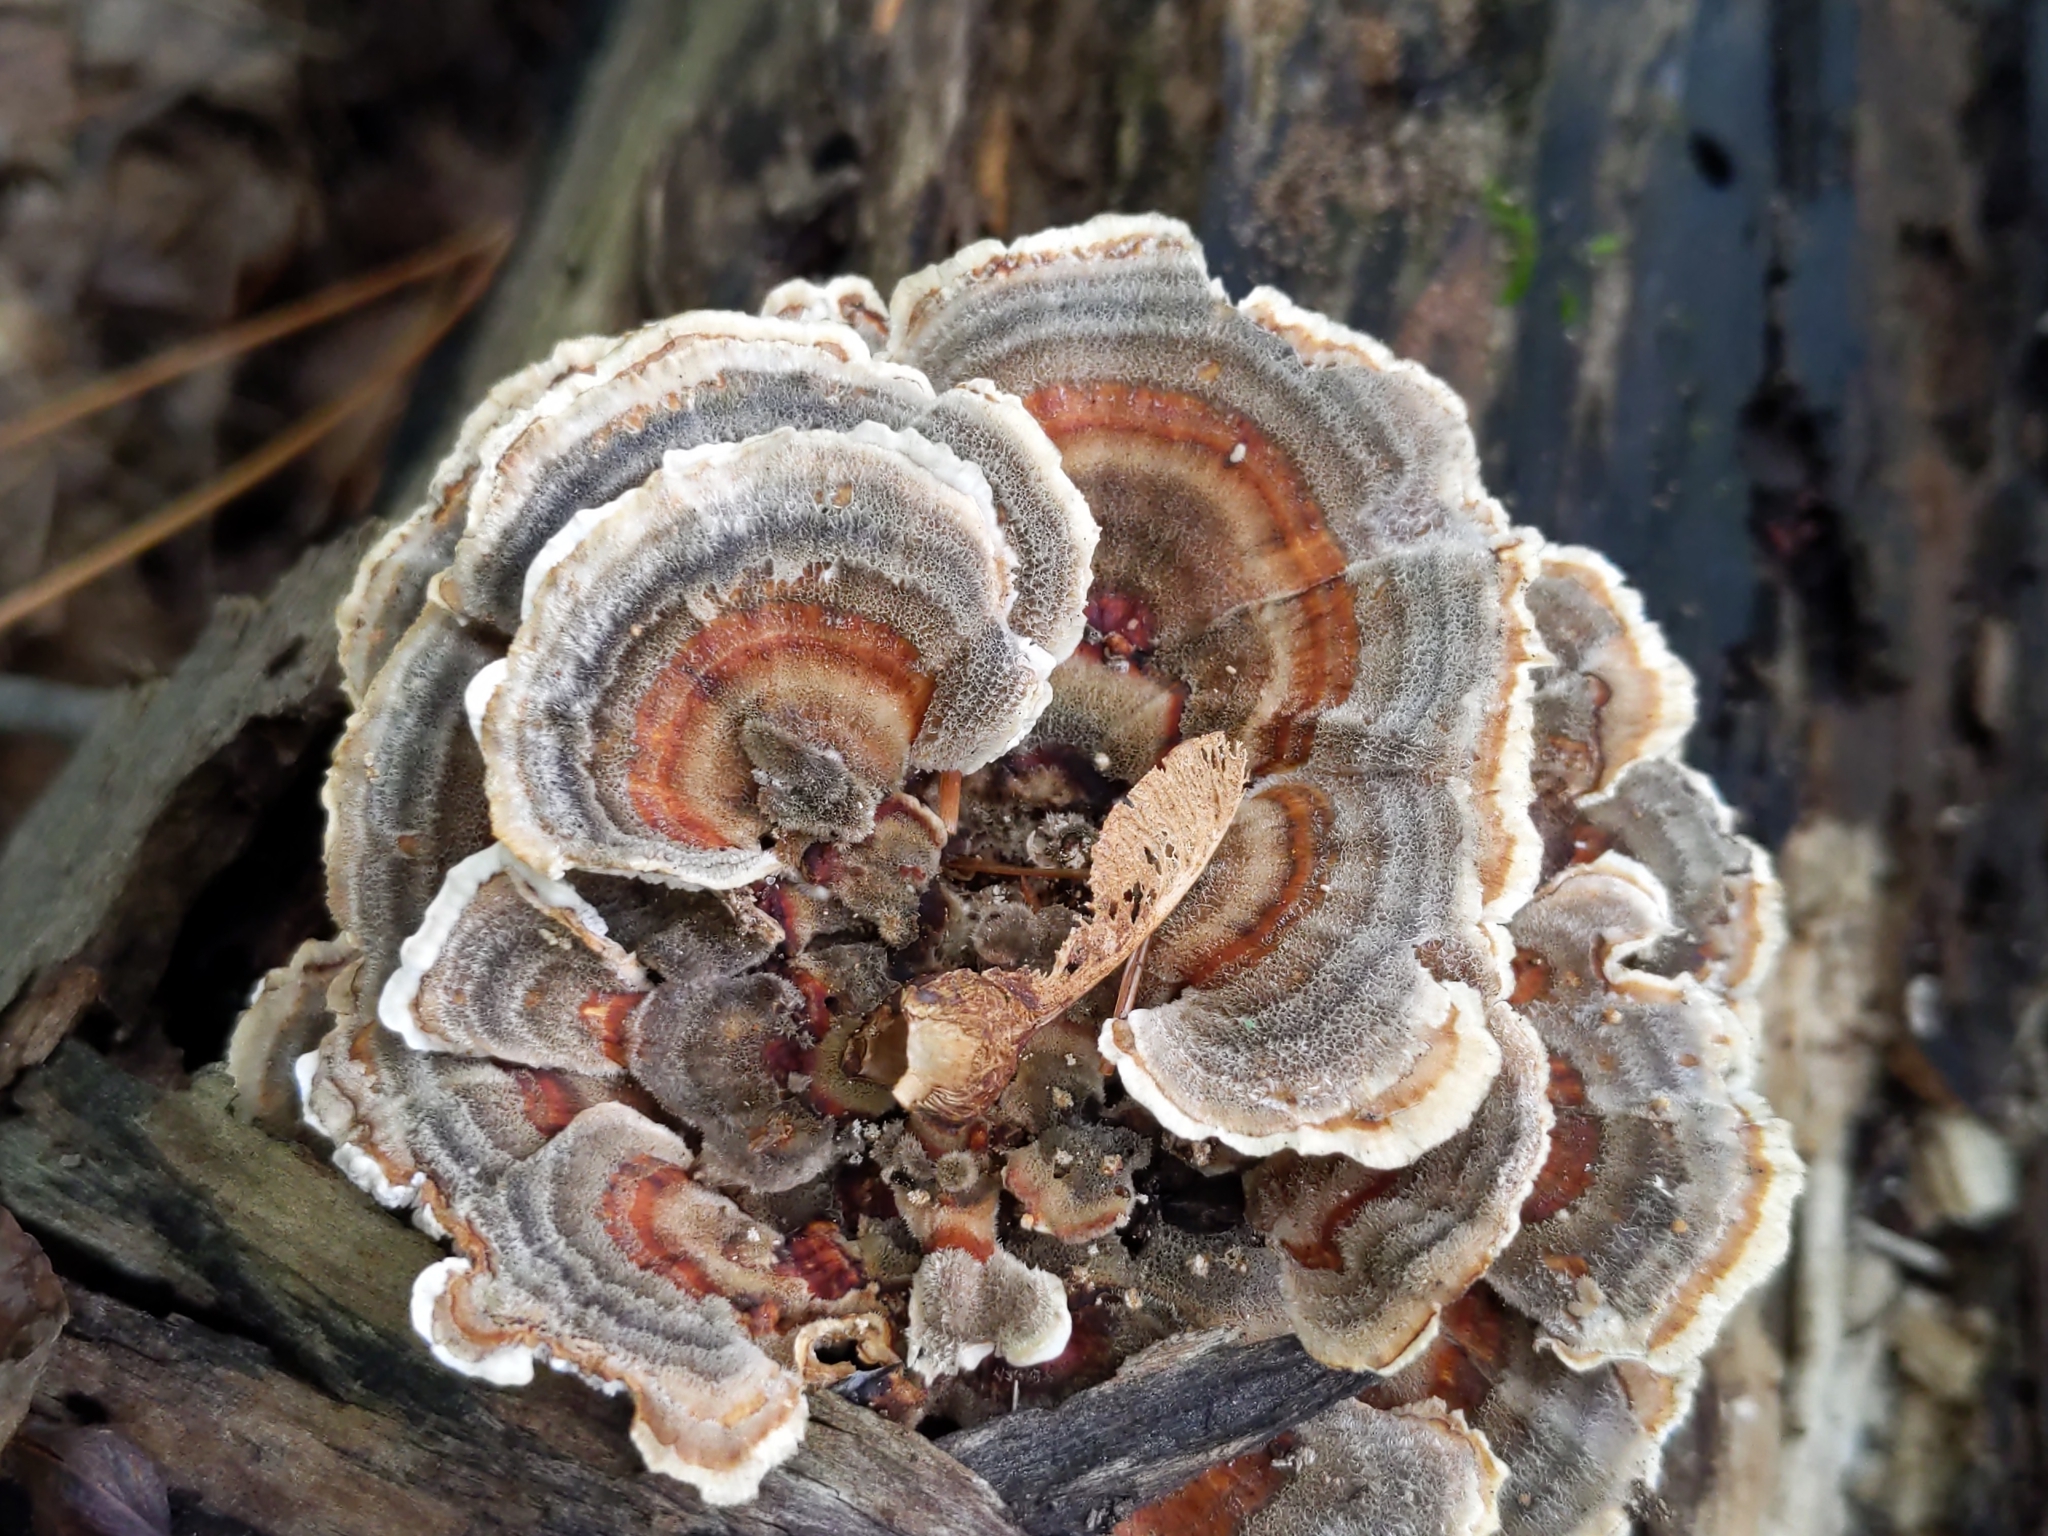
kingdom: Fungi
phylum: Basidiomycota
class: Agaricomycetes
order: Polyporales
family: Polyporaceae
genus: Trametes
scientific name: Trametes versicolor
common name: Turkeytail
